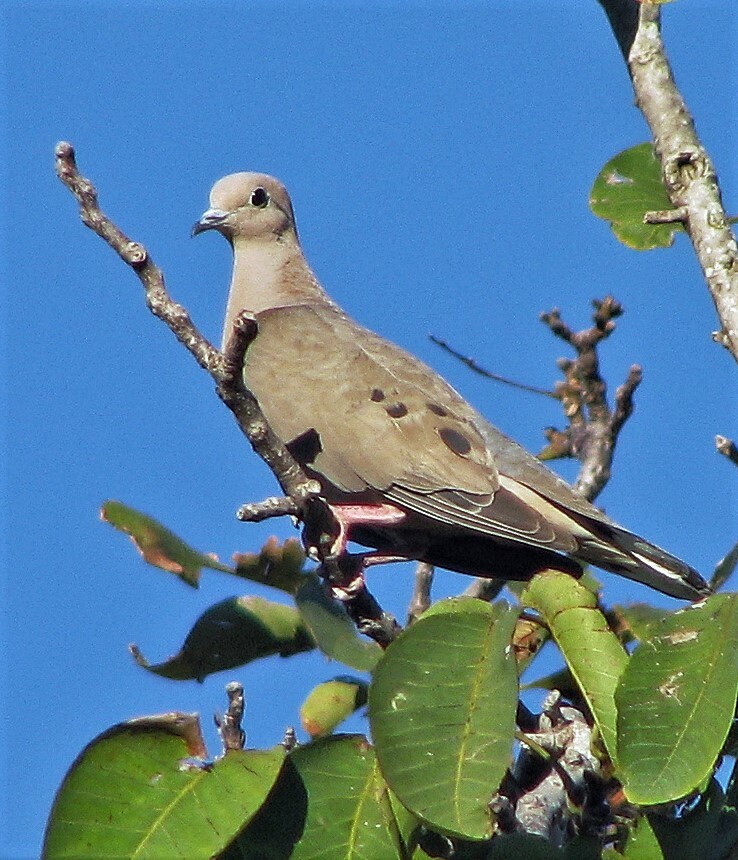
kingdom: Animalia
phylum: Chordata
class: Aves
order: Columbiformes
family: Columbidae
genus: Zenaida
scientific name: Zenaida auriculata
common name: Eared dove
